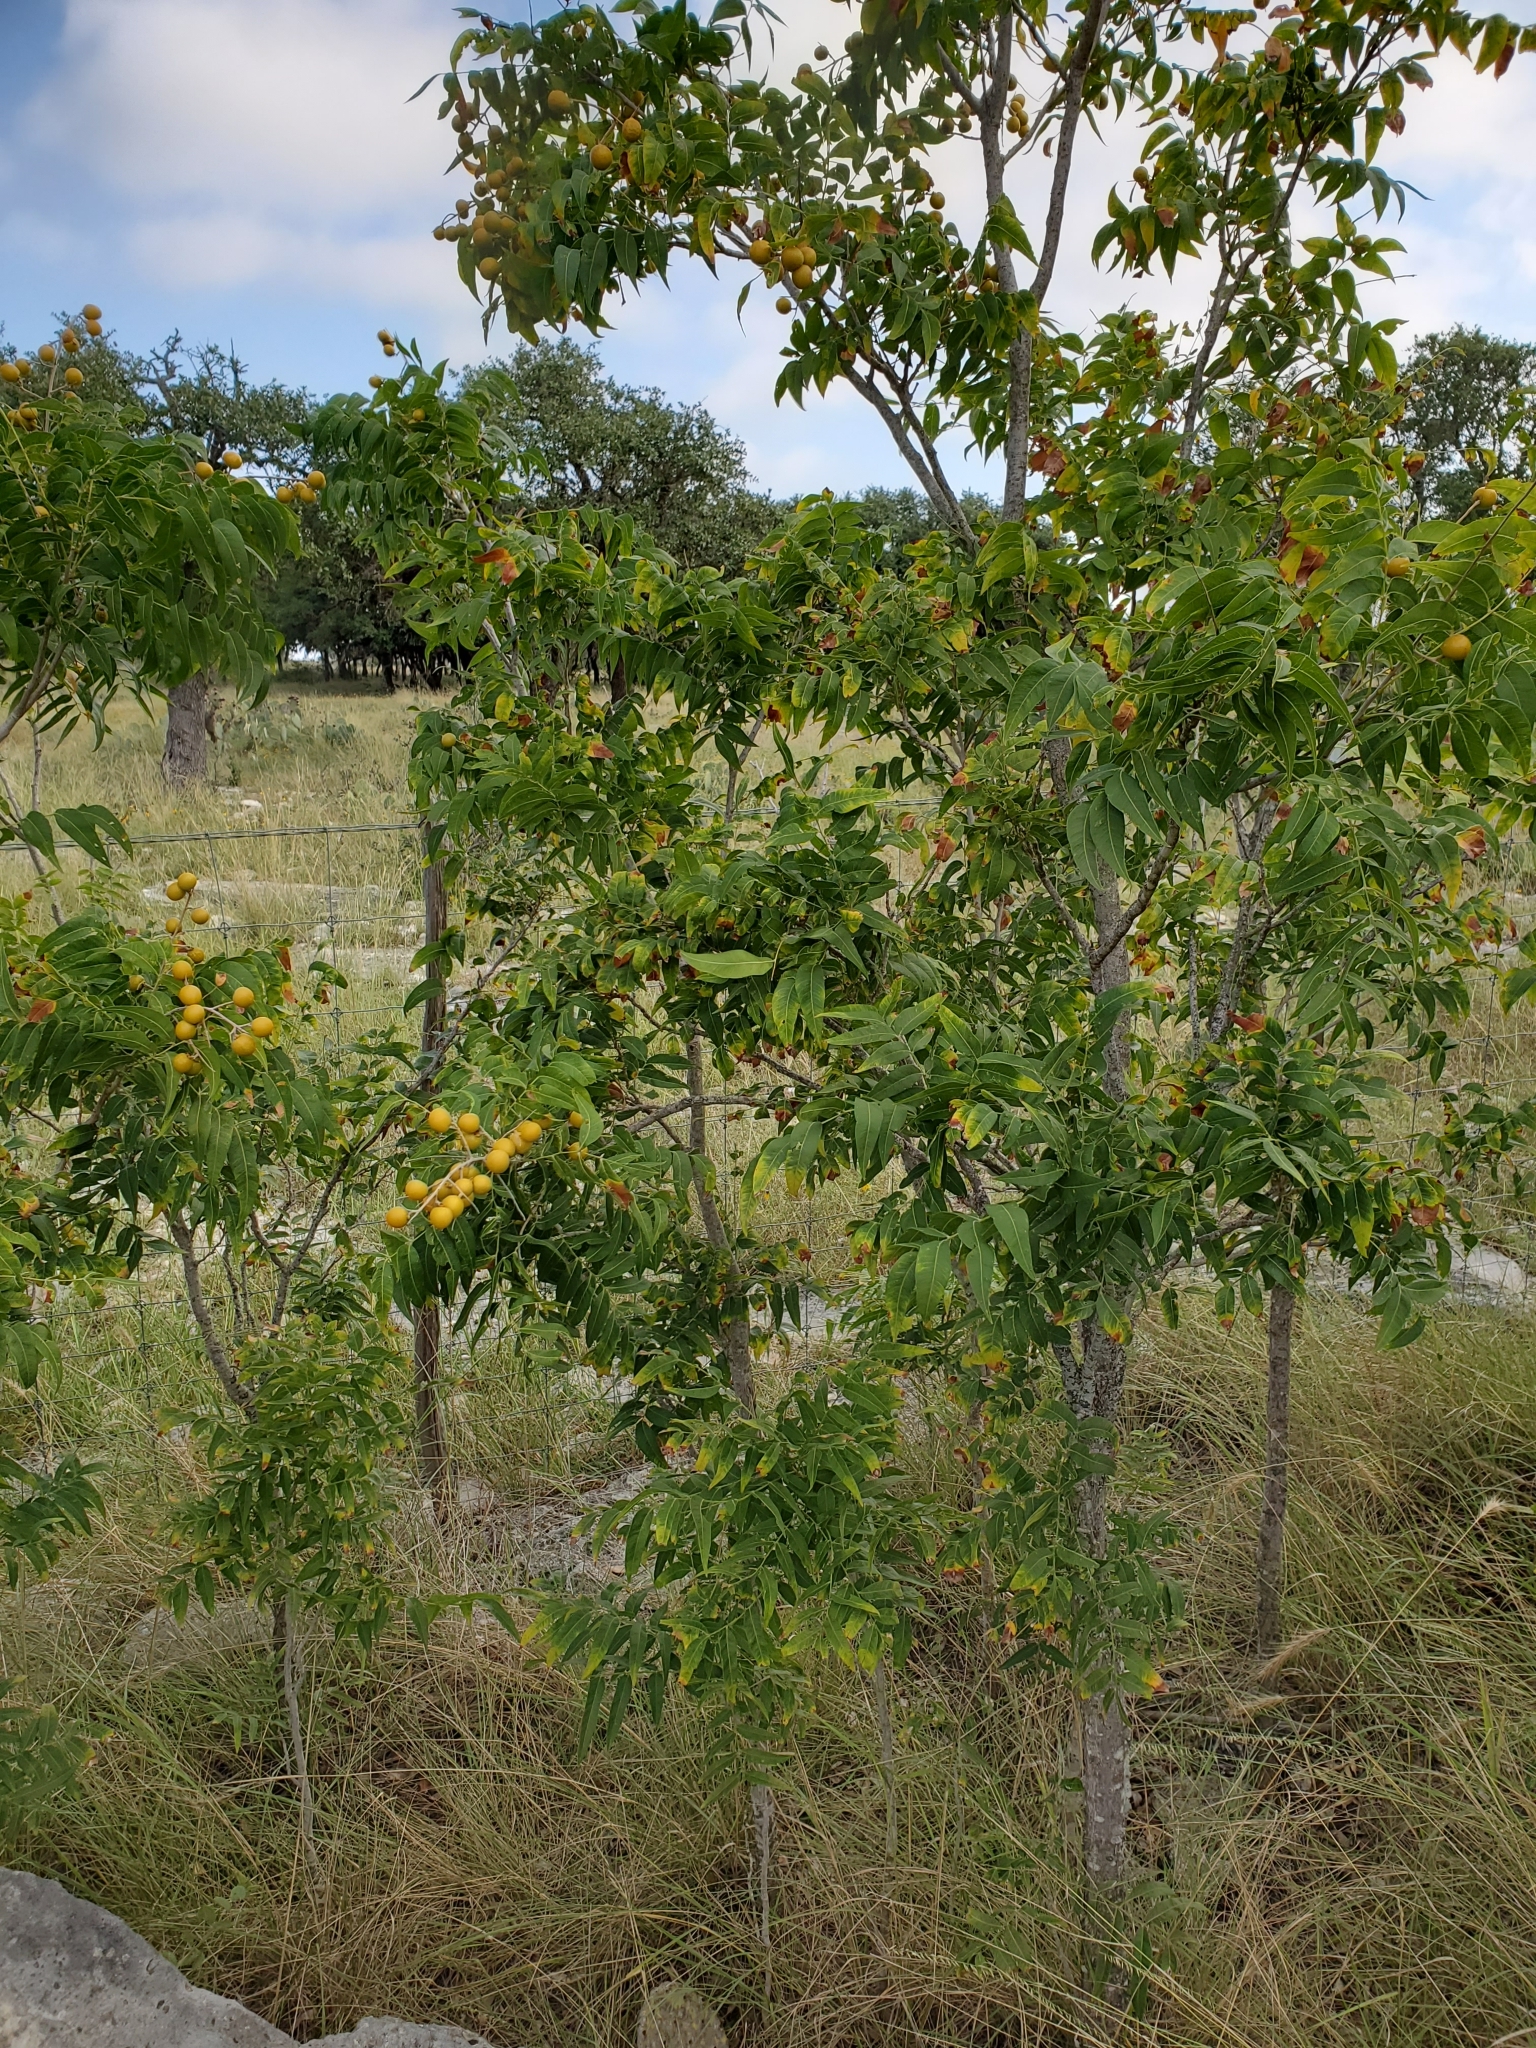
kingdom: Plantae
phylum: Tracheophyta
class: Magnoliopsida
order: Sapindales
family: Sapindaceae
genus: Sapindus
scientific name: Sapindus drummondii
